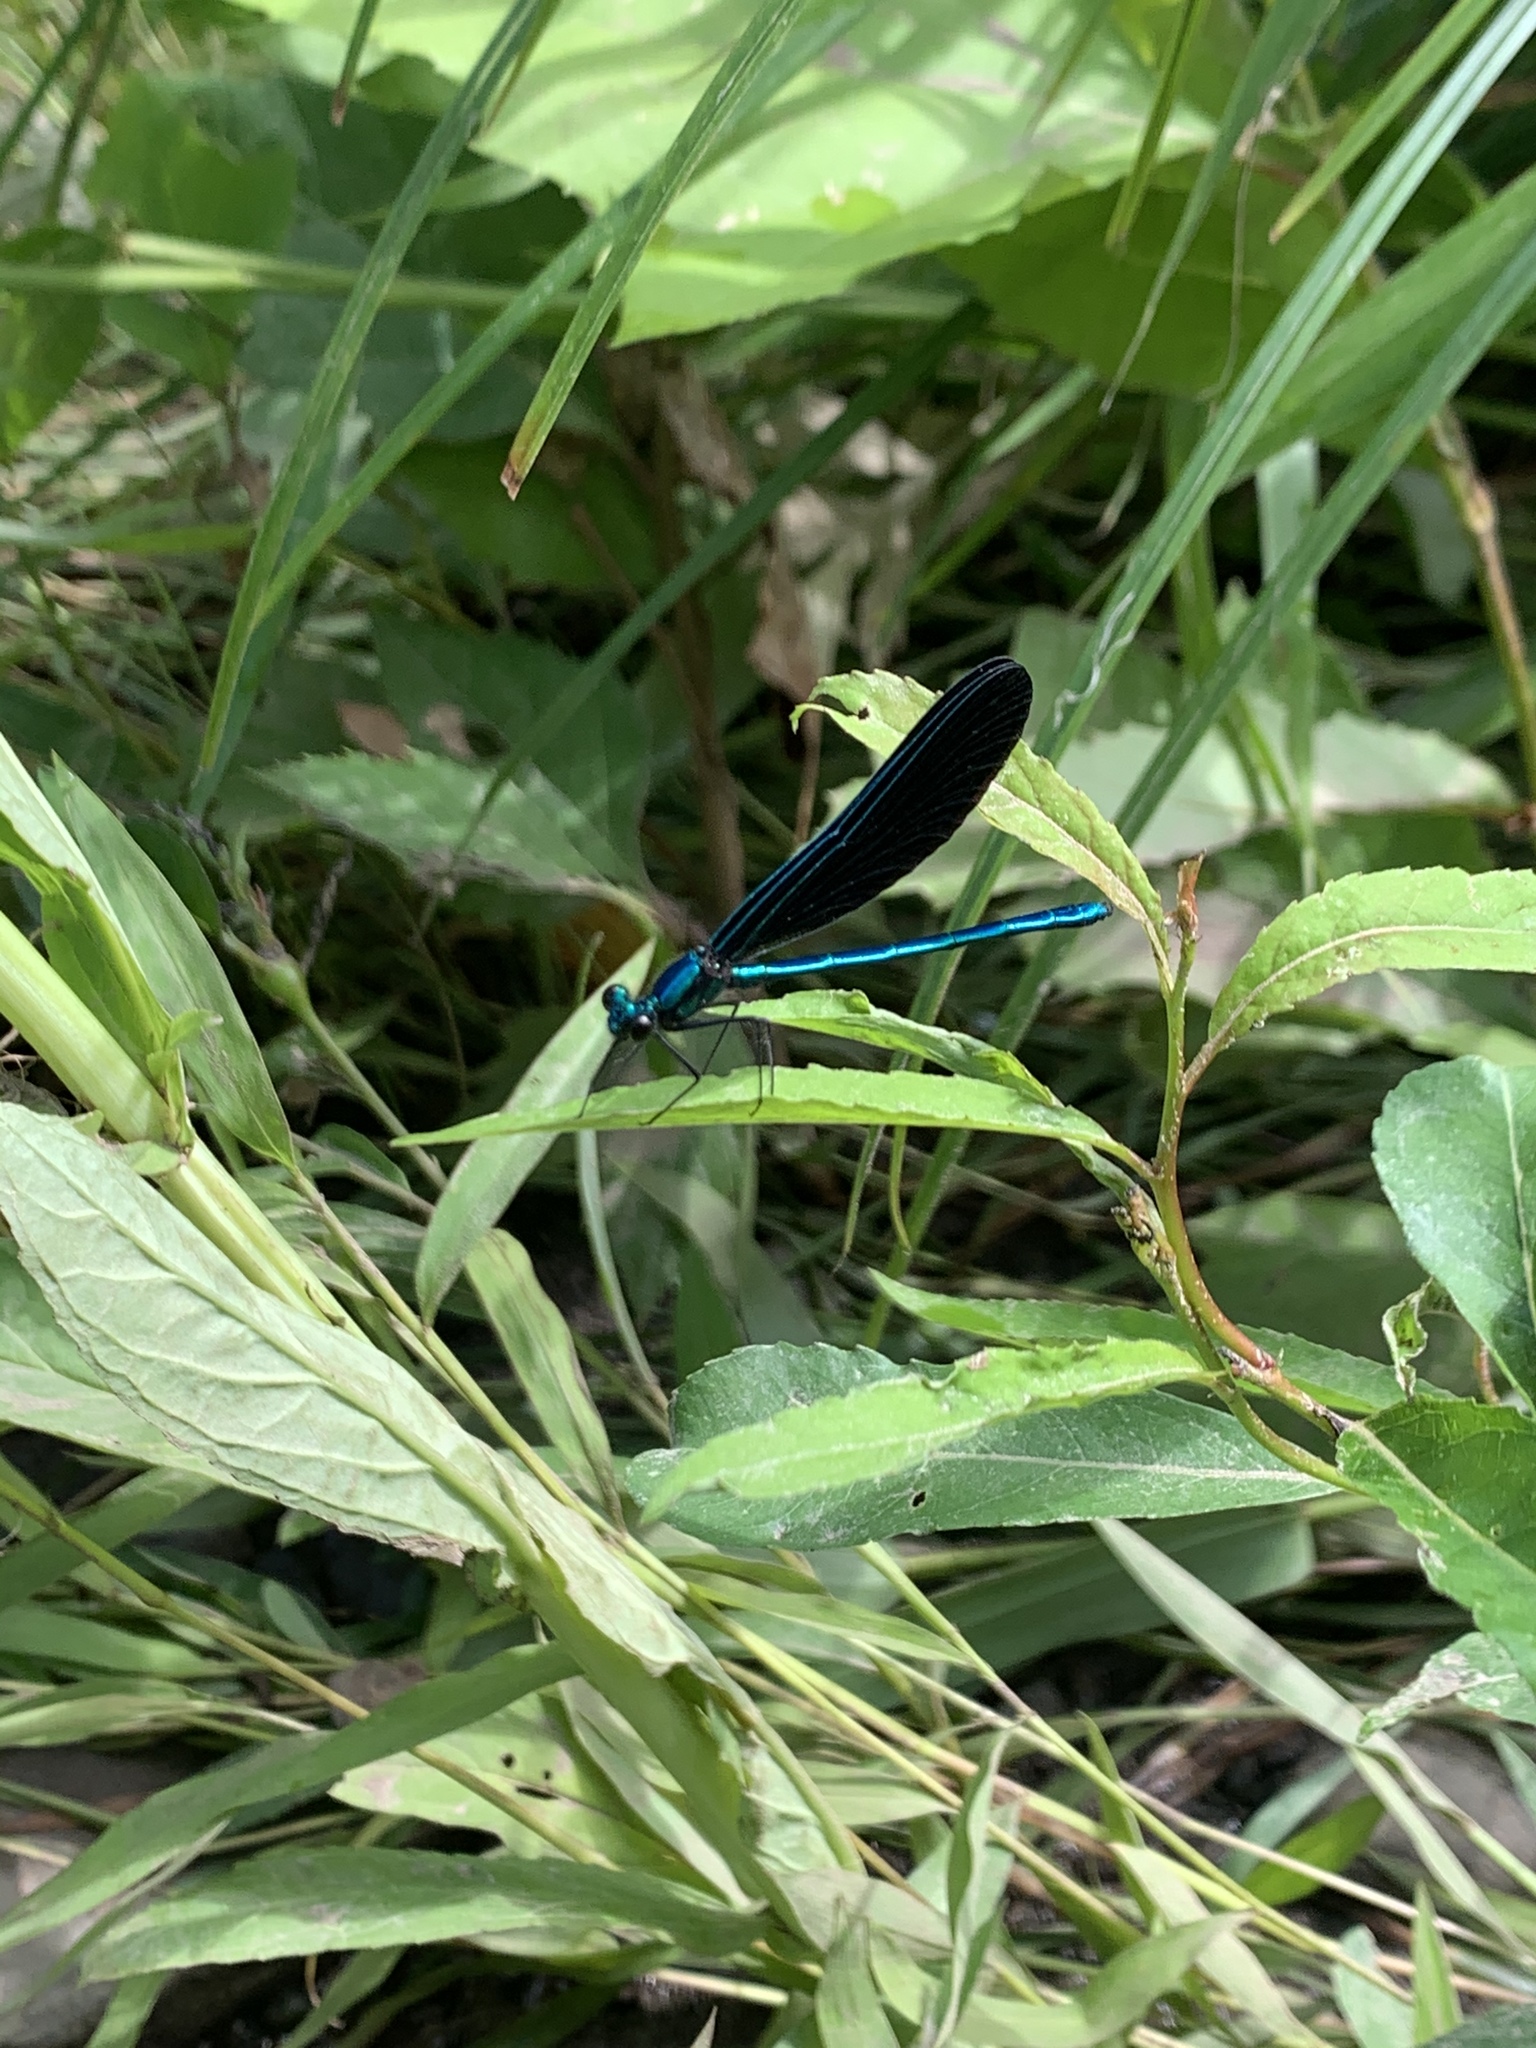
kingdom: Animalia
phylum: Arthropoda
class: Insecta
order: Odonata
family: Calopterygidae
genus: Calopteryx
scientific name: Calopteryx maculata
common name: Ebony jewelwing
